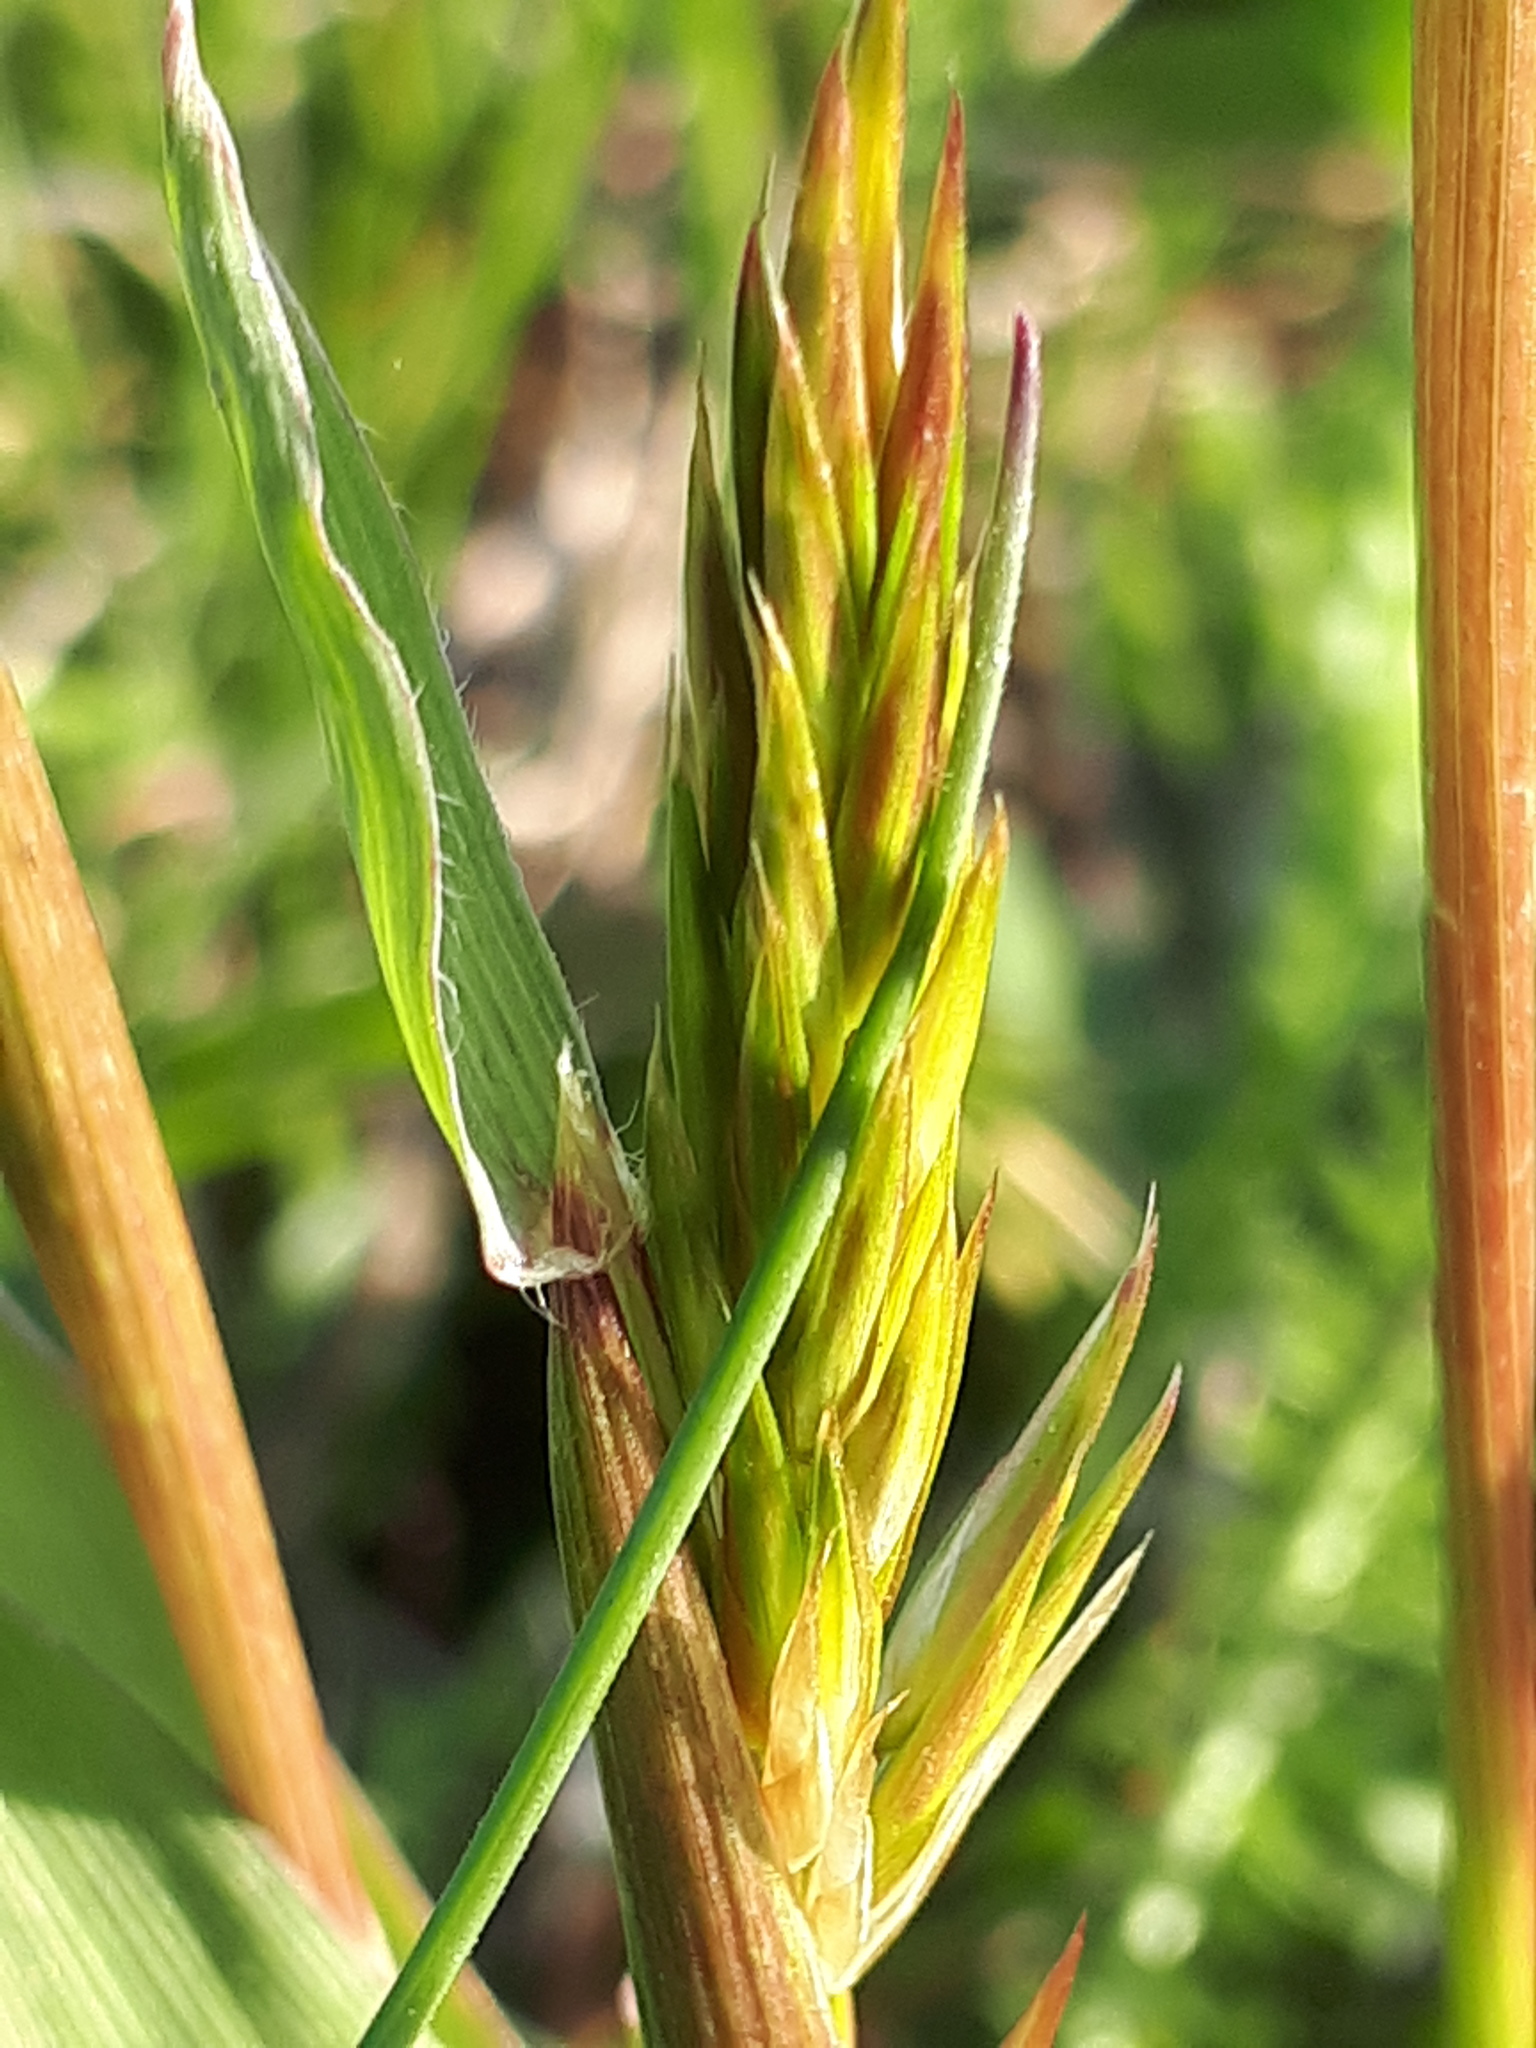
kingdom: Plantae
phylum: Tracheophyta
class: Liliopsida
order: Poales
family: Poaceae
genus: Anthoxanthum
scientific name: Anthoxanthum odoratum
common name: Sweet vernalgrass
